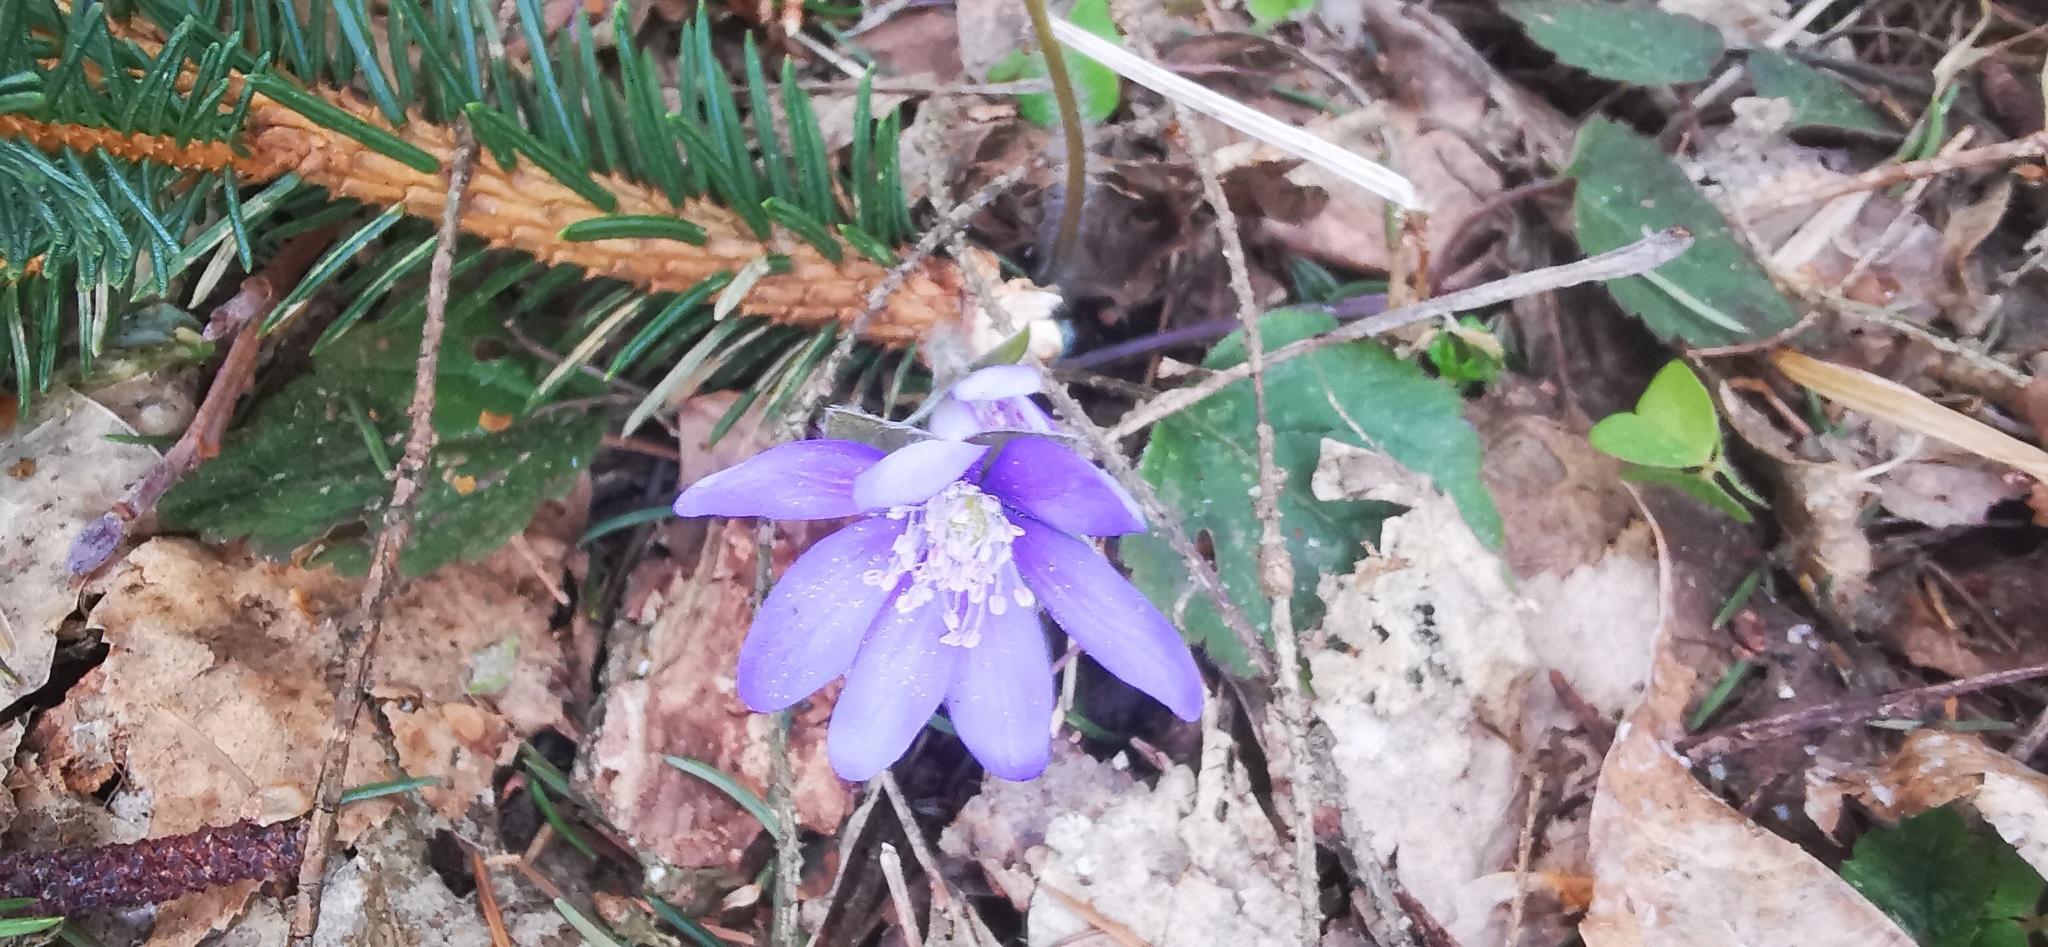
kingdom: Plantae
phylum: Tracheophyta
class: Magnoliopsida
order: Ranunculales
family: Ranunculaceae
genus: Hepatica
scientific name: Hepatica nobilis
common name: Liverleaf
